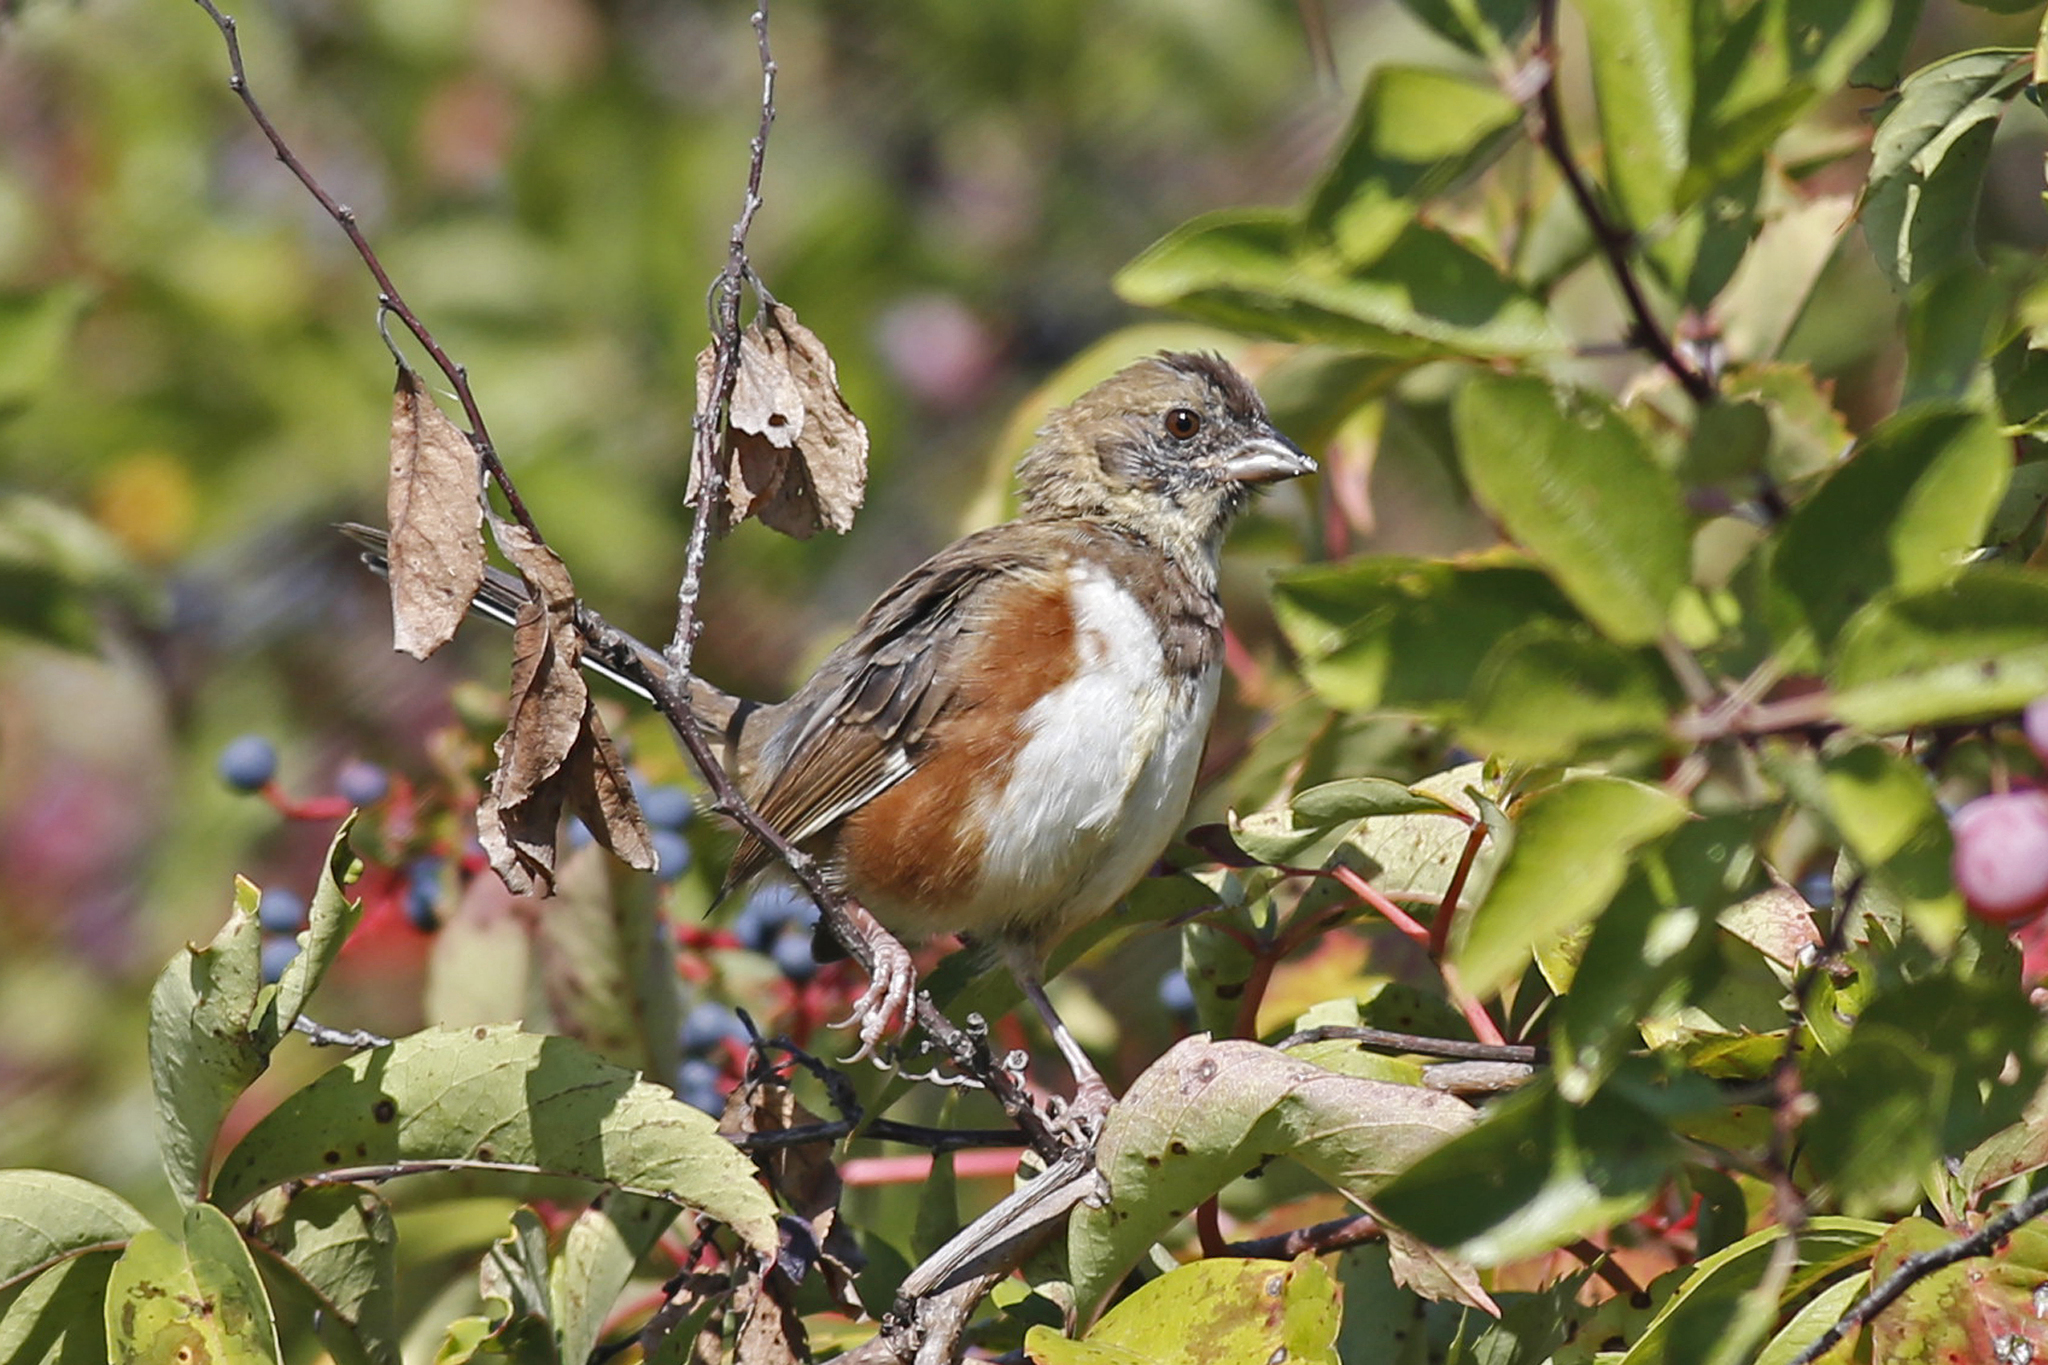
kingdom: Animalia
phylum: Chordata
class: Aves
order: Passeriformes
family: Passerellidae
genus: Pipilo
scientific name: Pipilo erythrophthalmus
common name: Eastern towhee
